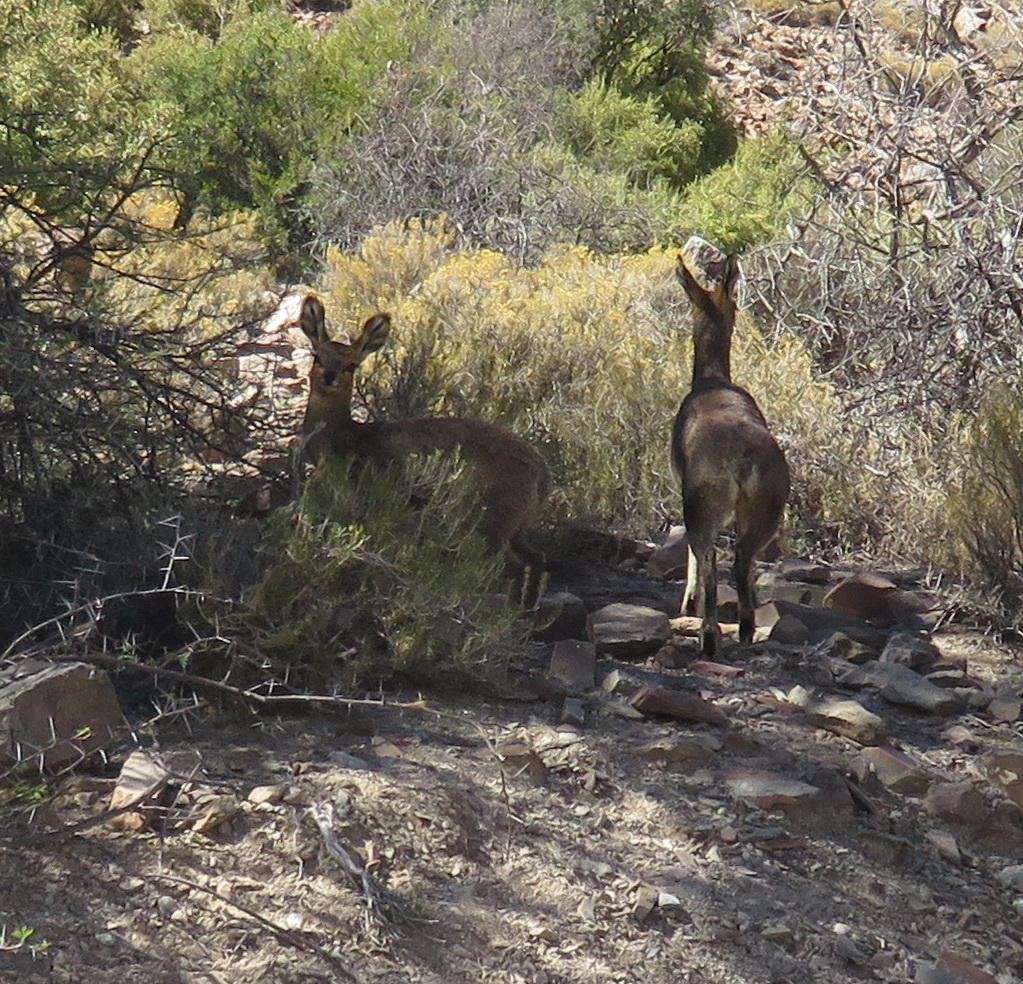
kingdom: Animalia
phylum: Chordata
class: Mammalia
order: Artiodactyla
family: Bovidae
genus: Oreotragus
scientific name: Oreotragus oreotragus
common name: Klipspringer
